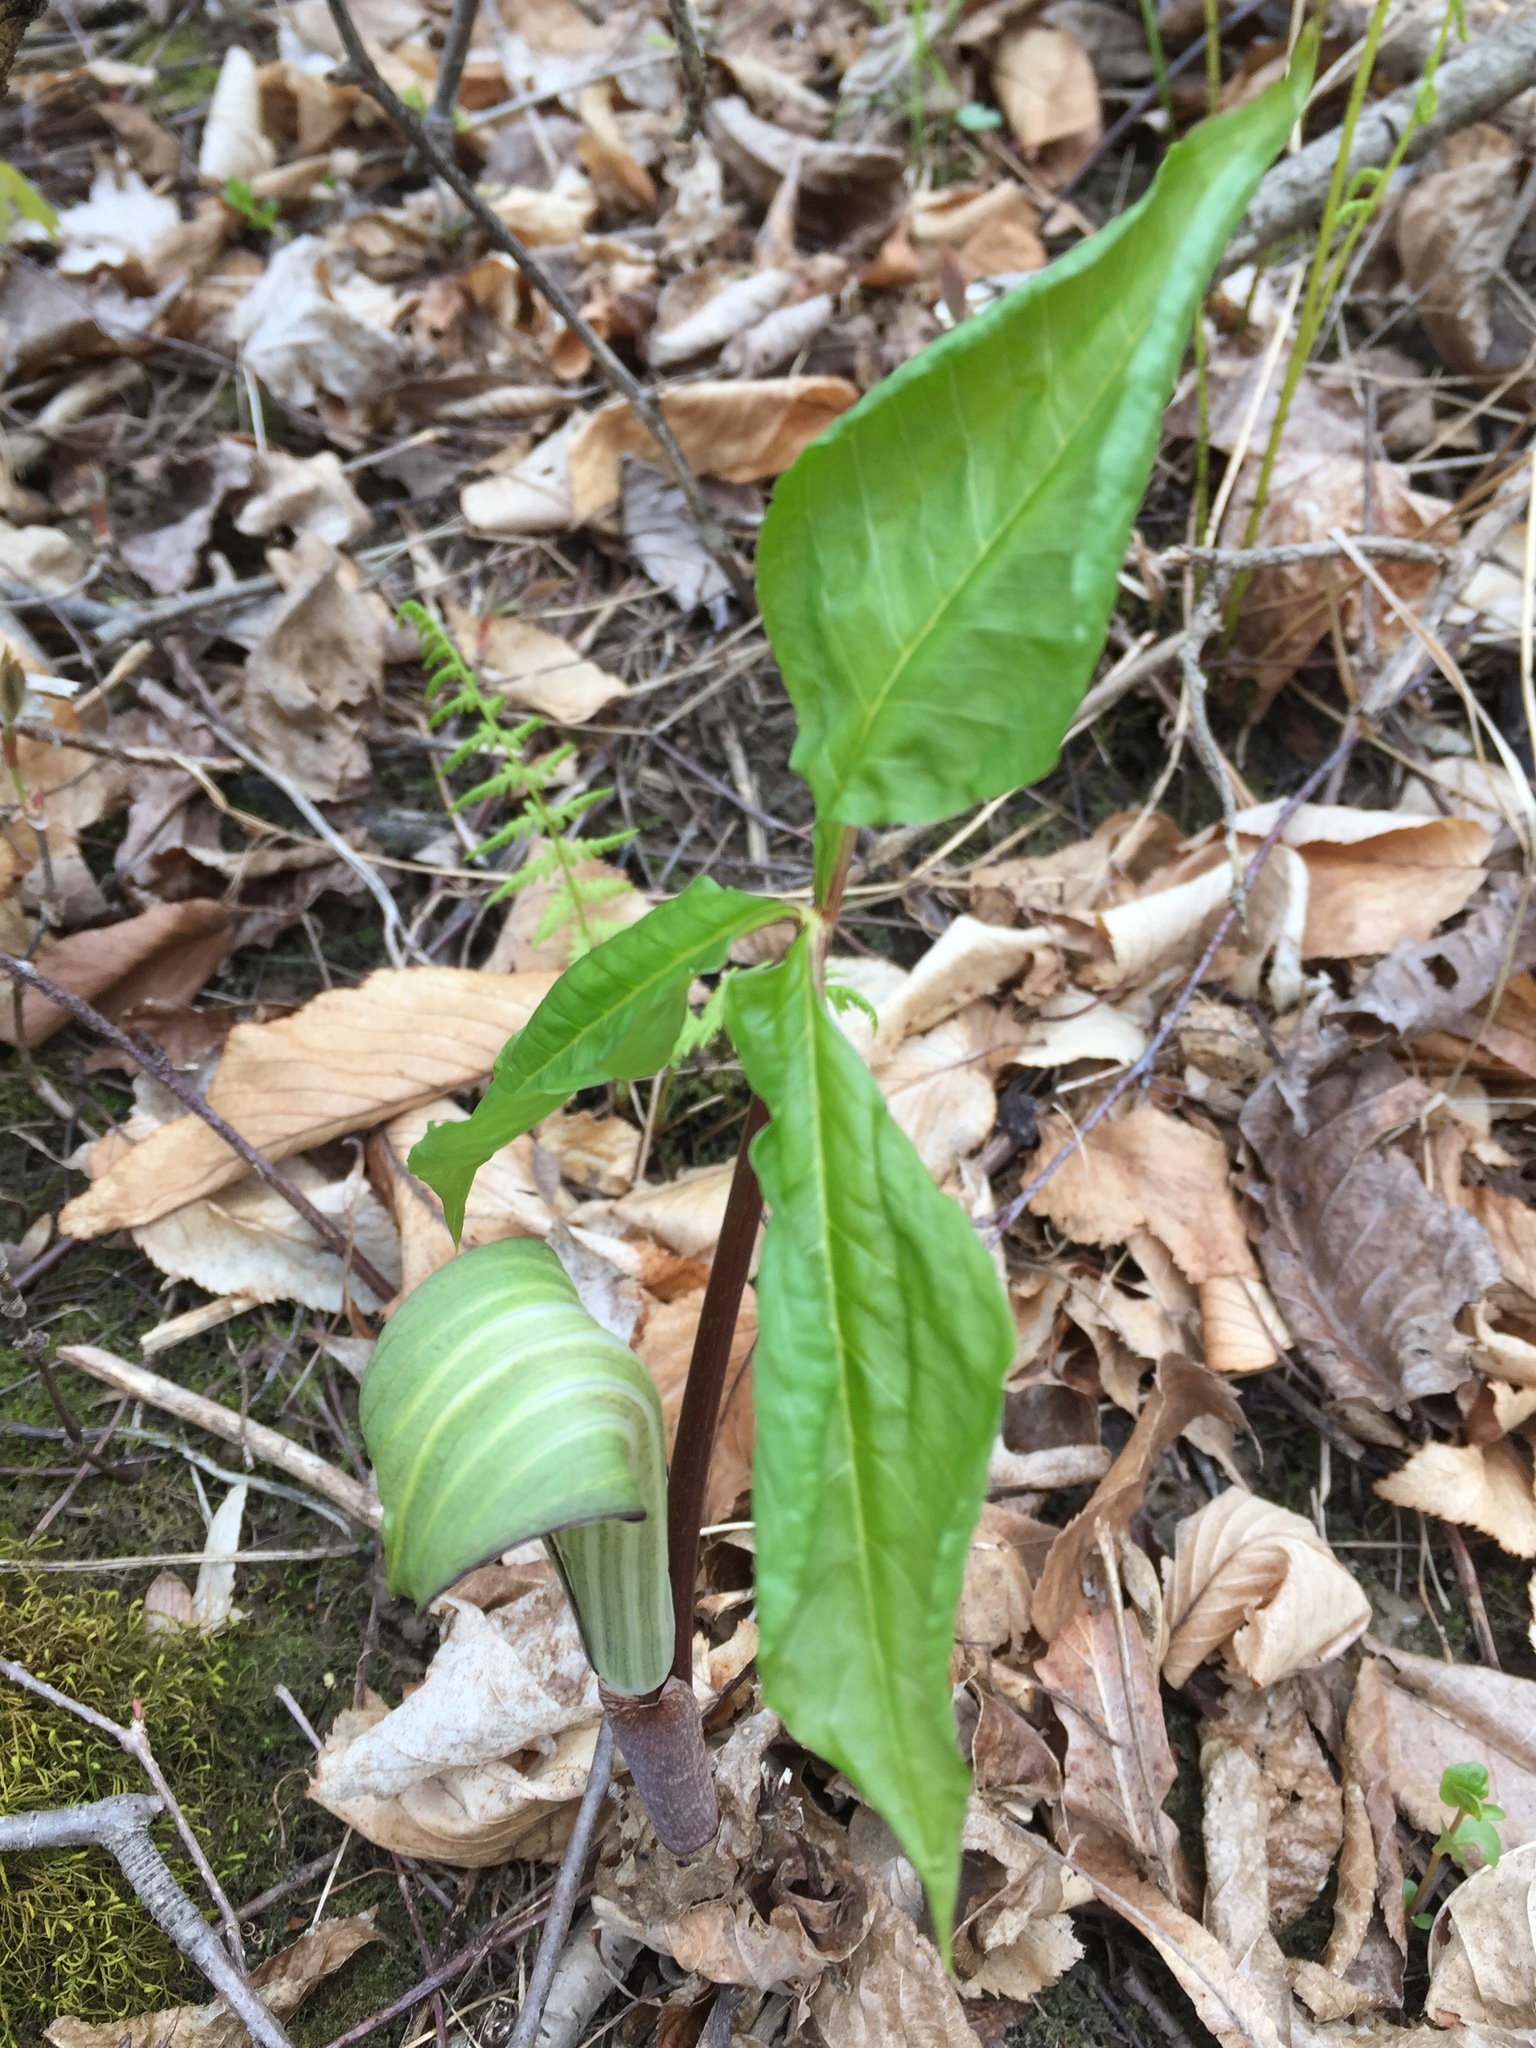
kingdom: Plantae
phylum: Tracheophyta
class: Liliopsida
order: Alismatales
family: Araceae
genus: Arisaema
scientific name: Arisaema triphyllum
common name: Jack-in-the-pulpit
